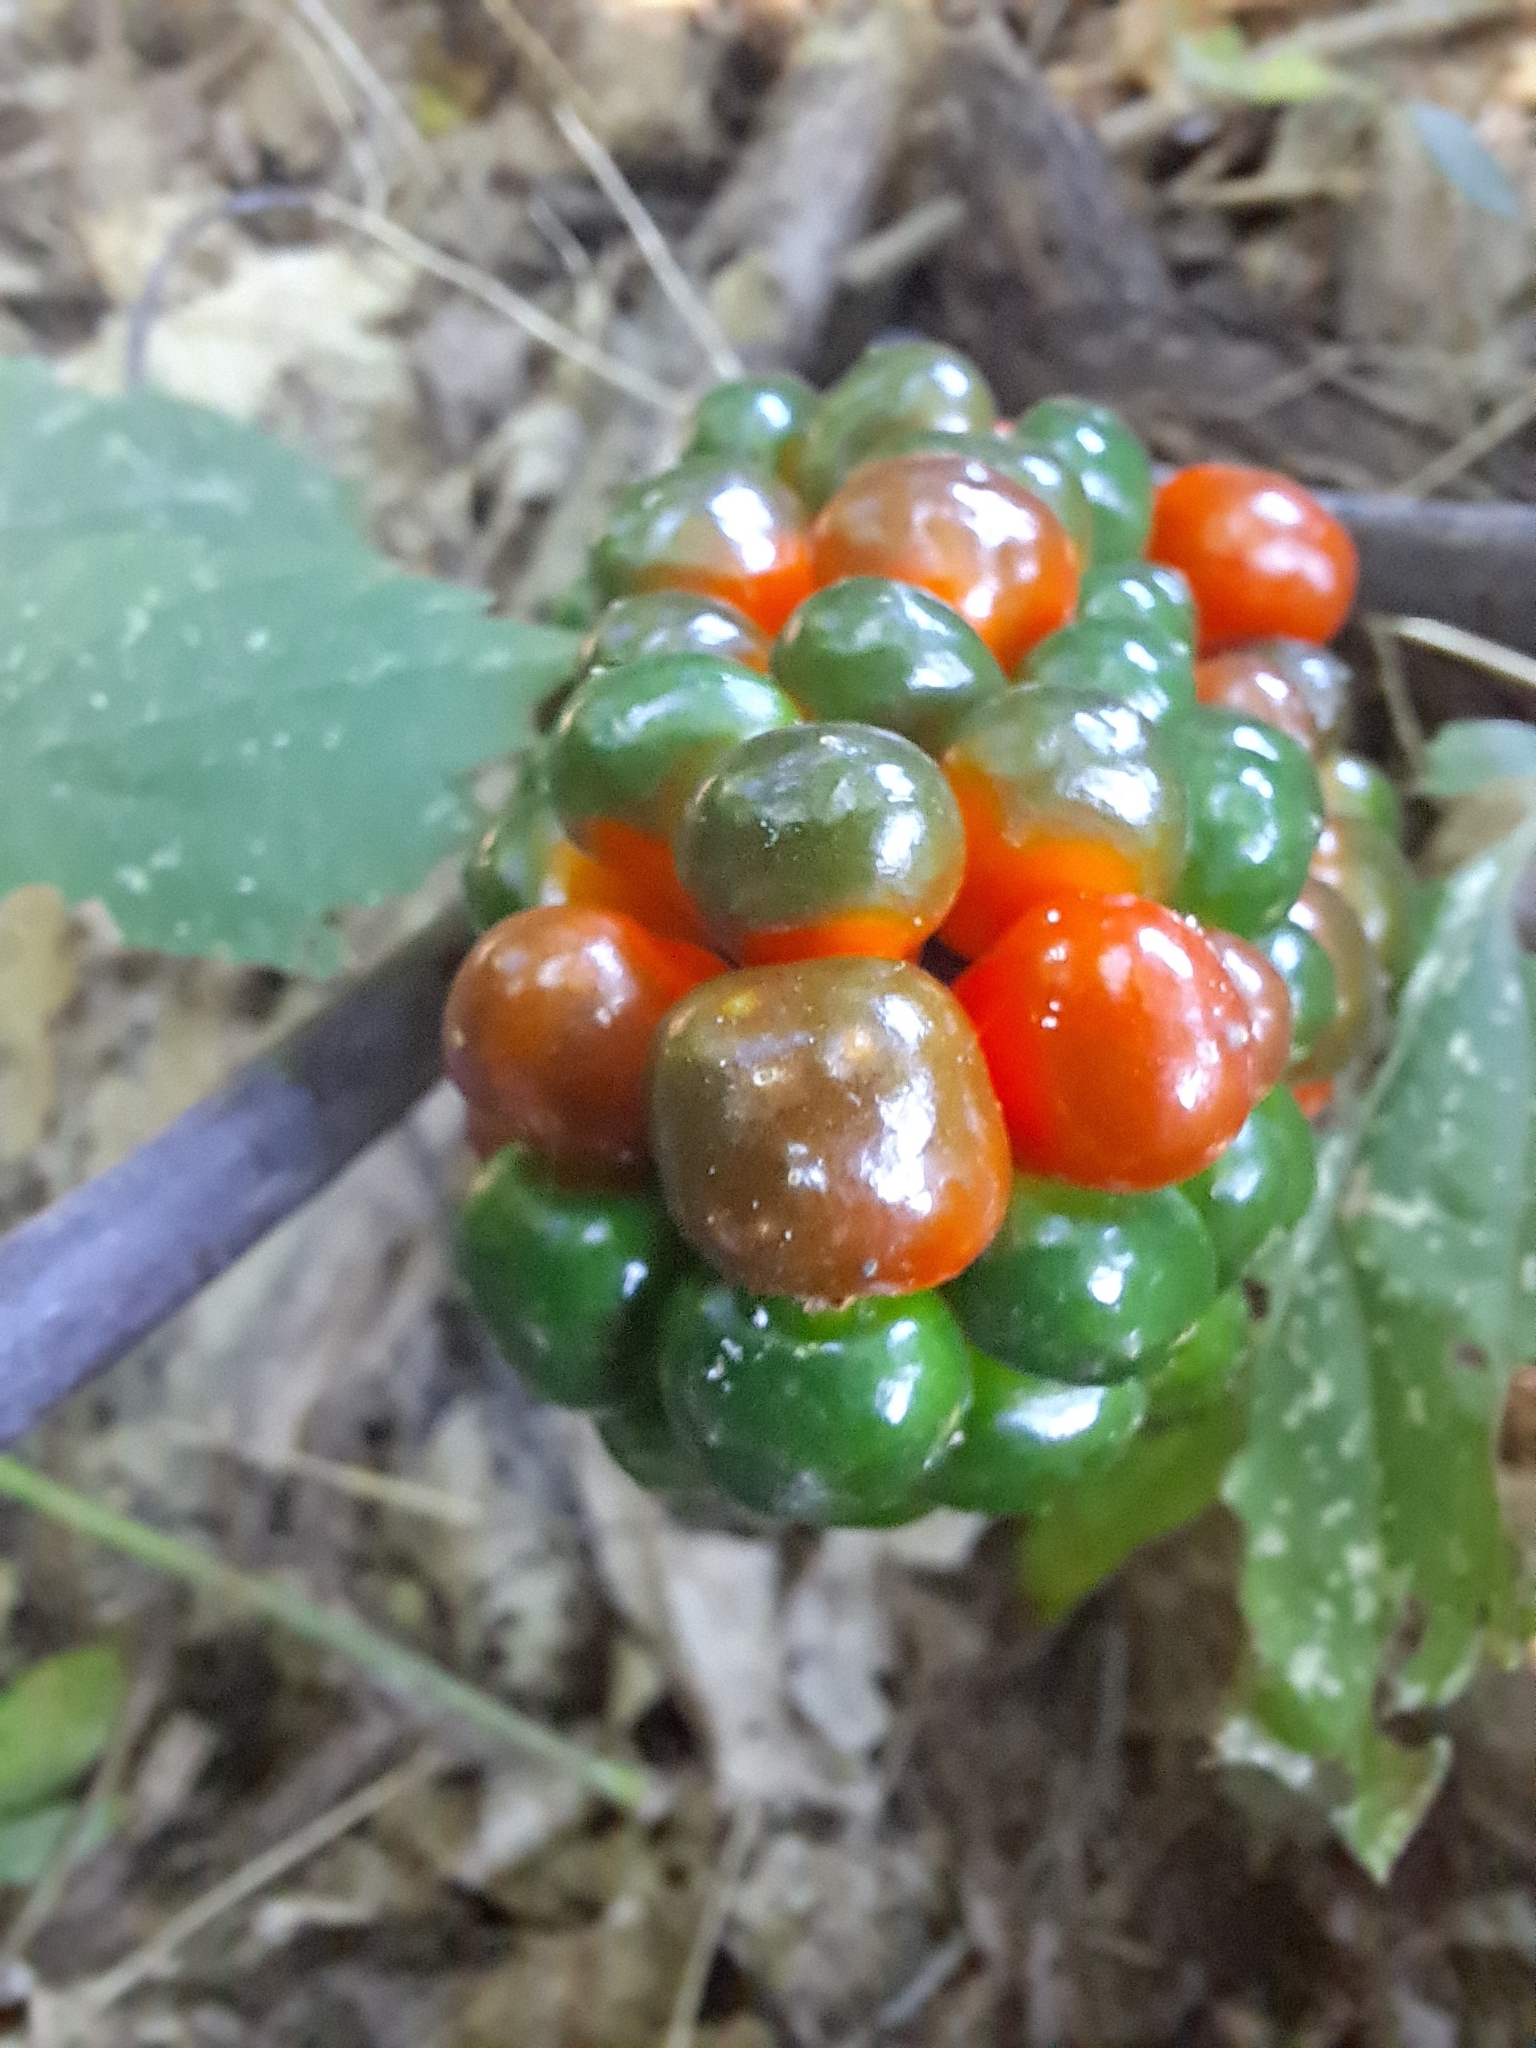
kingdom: Plantae
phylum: Tracheophyta
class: Liliopsida
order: Alismatales
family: Araceae
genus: Arisaema
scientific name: Arisaema triphyllum
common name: Jack-in-the-pulpit
